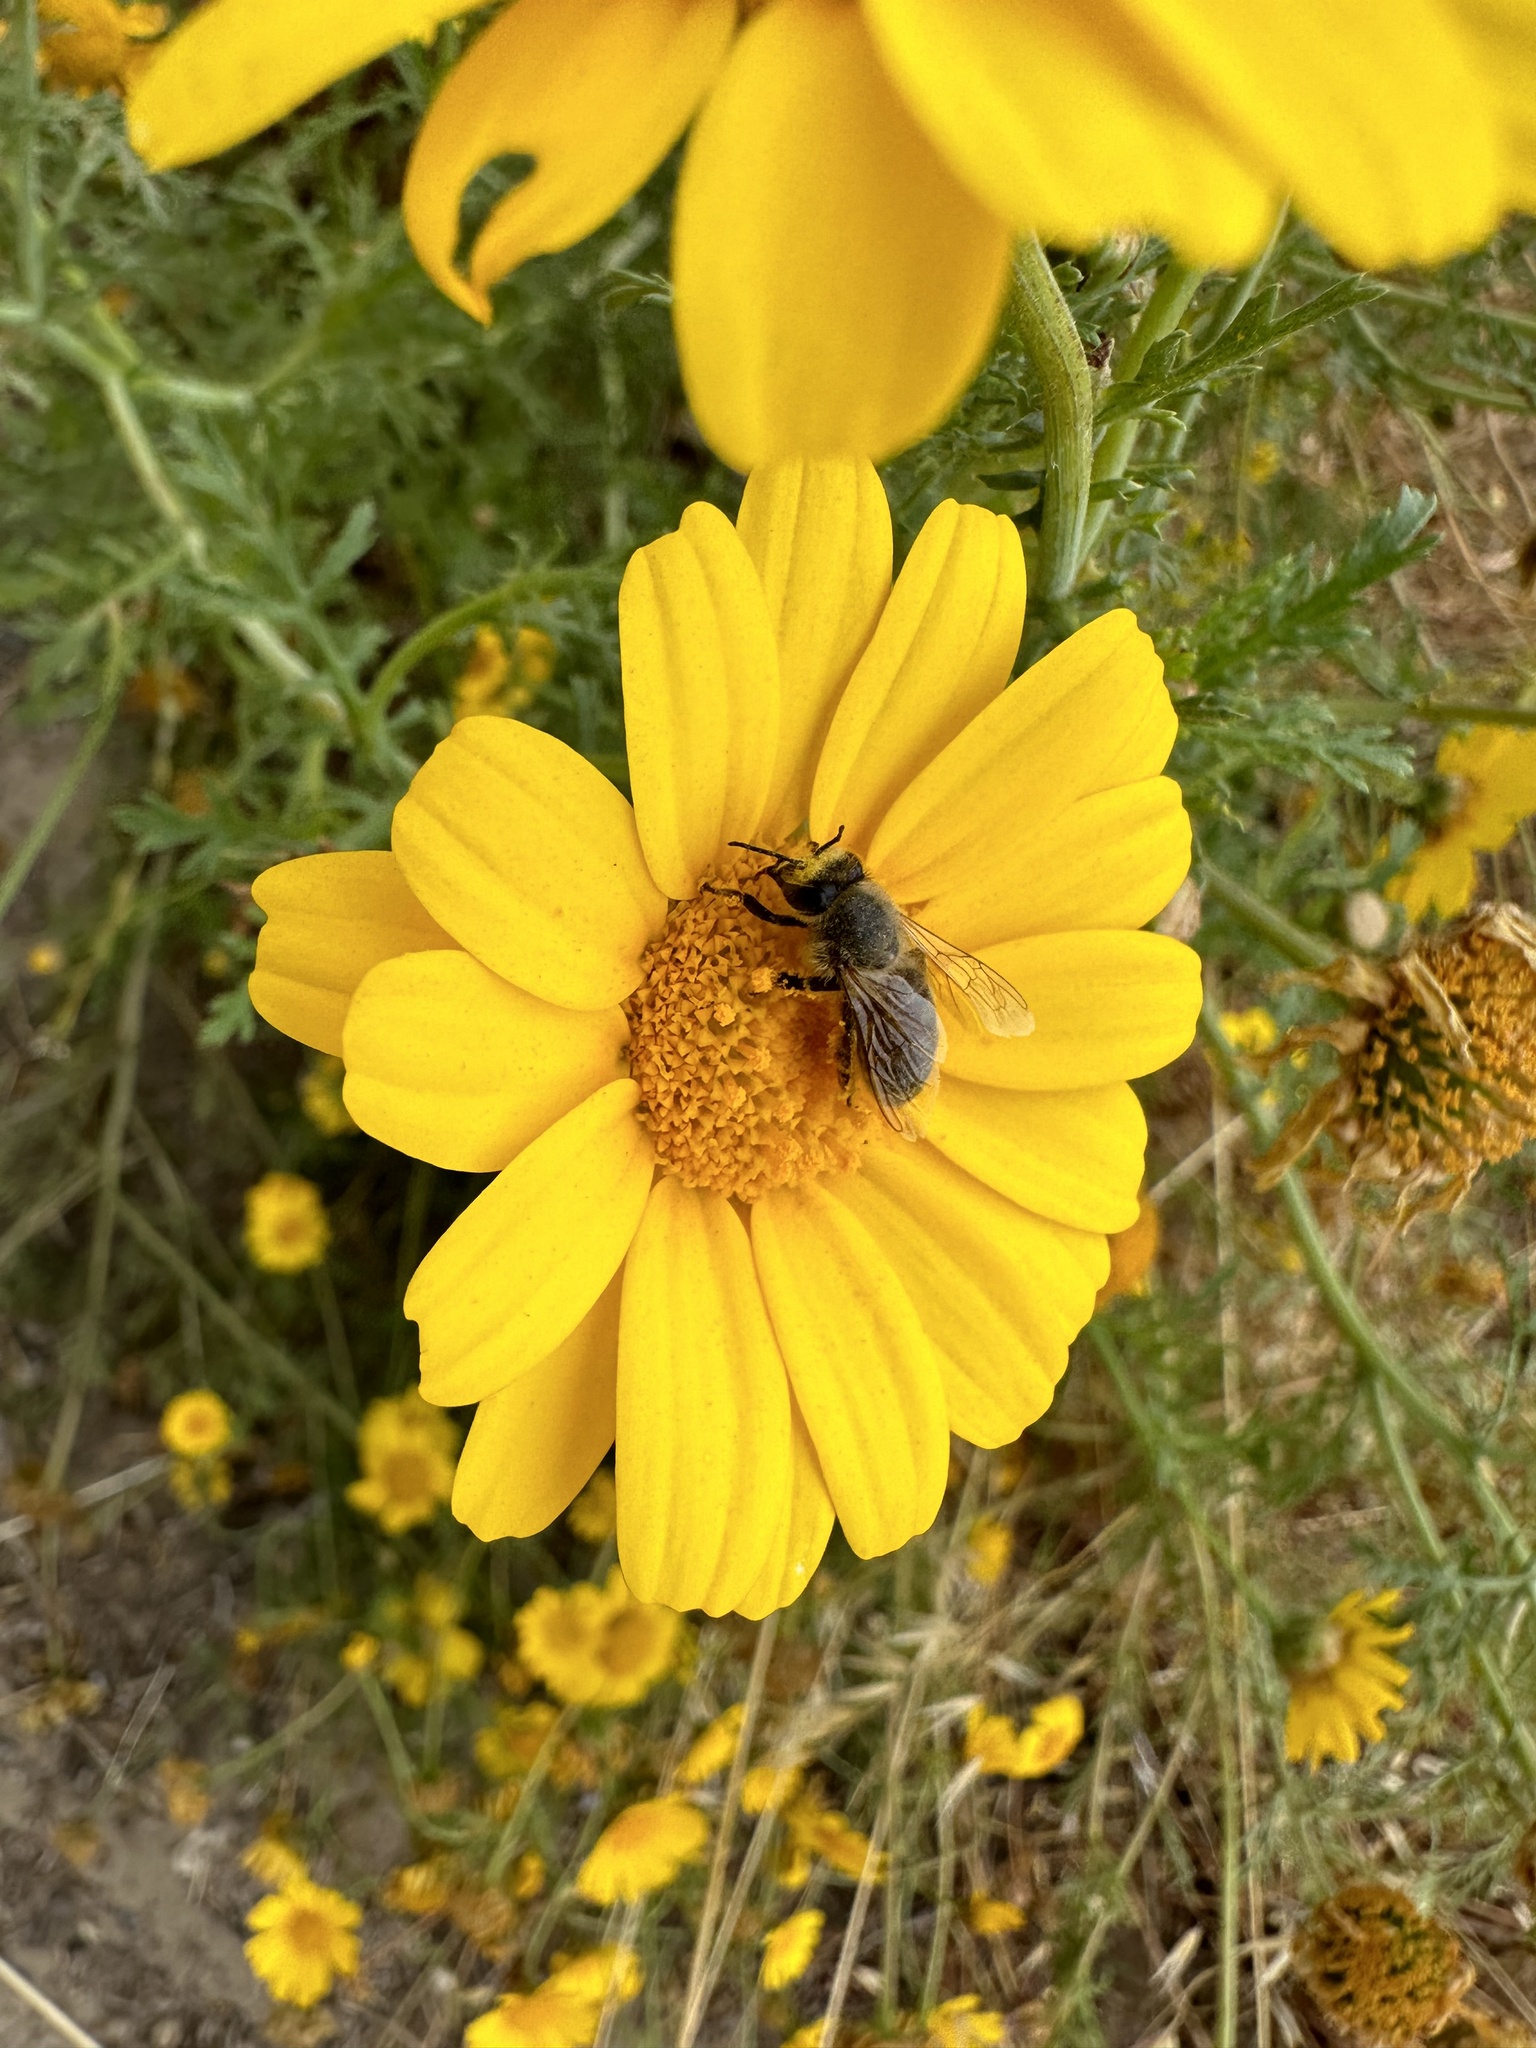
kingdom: Animalia
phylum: Arthropoda
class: Insecta
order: Hymenoptera
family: Apidae
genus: Apis
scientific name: Apis mellifera
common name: Honey bee
